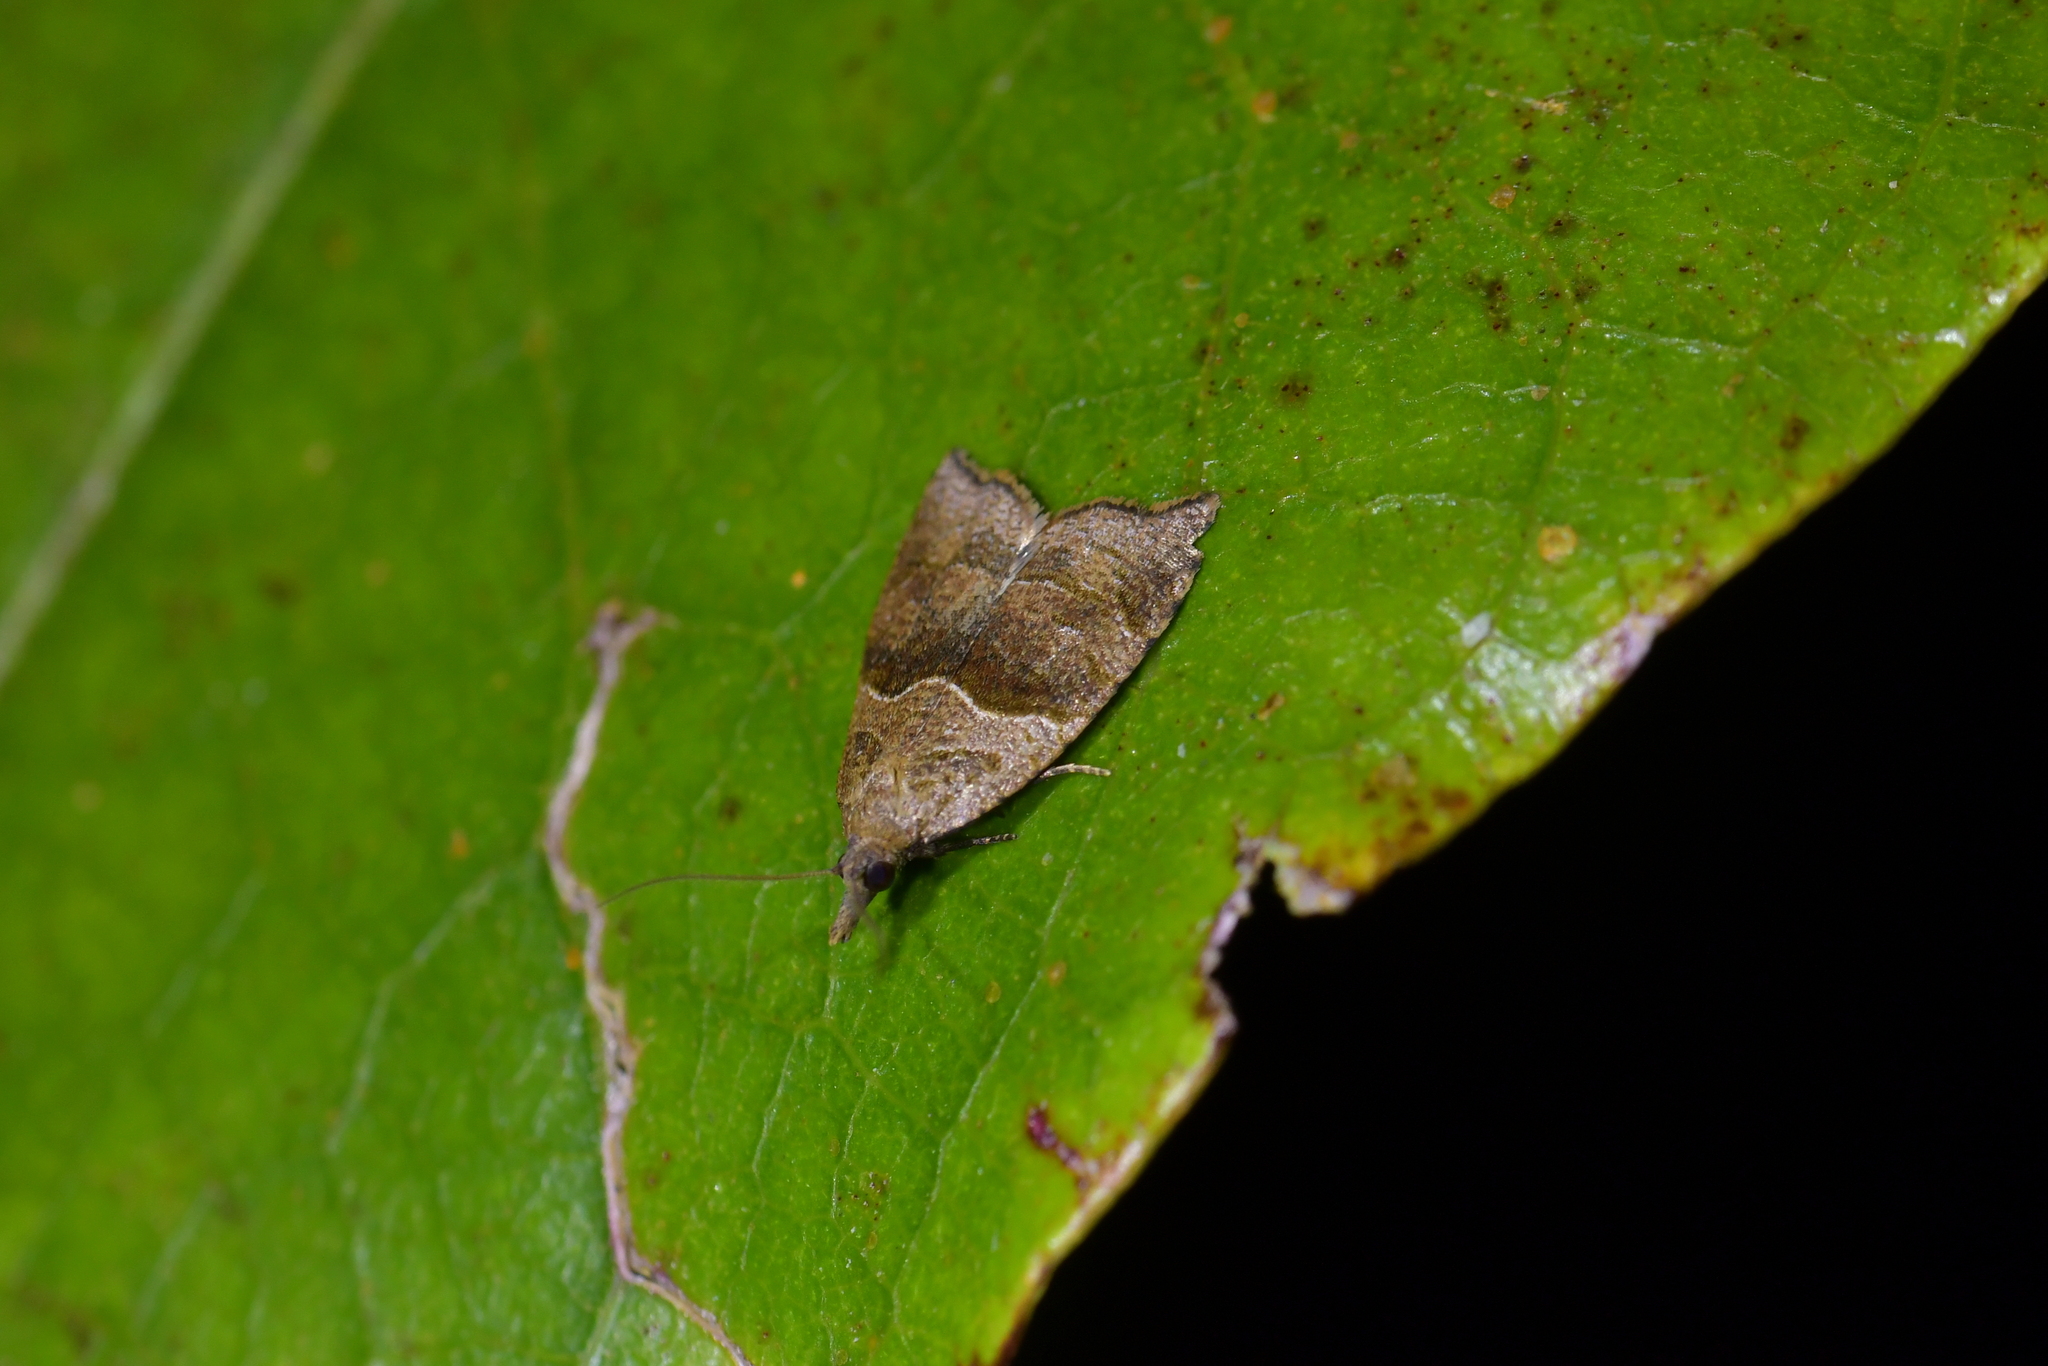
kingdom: Animalia
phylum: Arthropoda
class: Insecta
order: Lepidoptera
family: Tortricidae
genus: Cnephasia
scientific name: Cnephasia incertana
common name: Light grey tortrix
